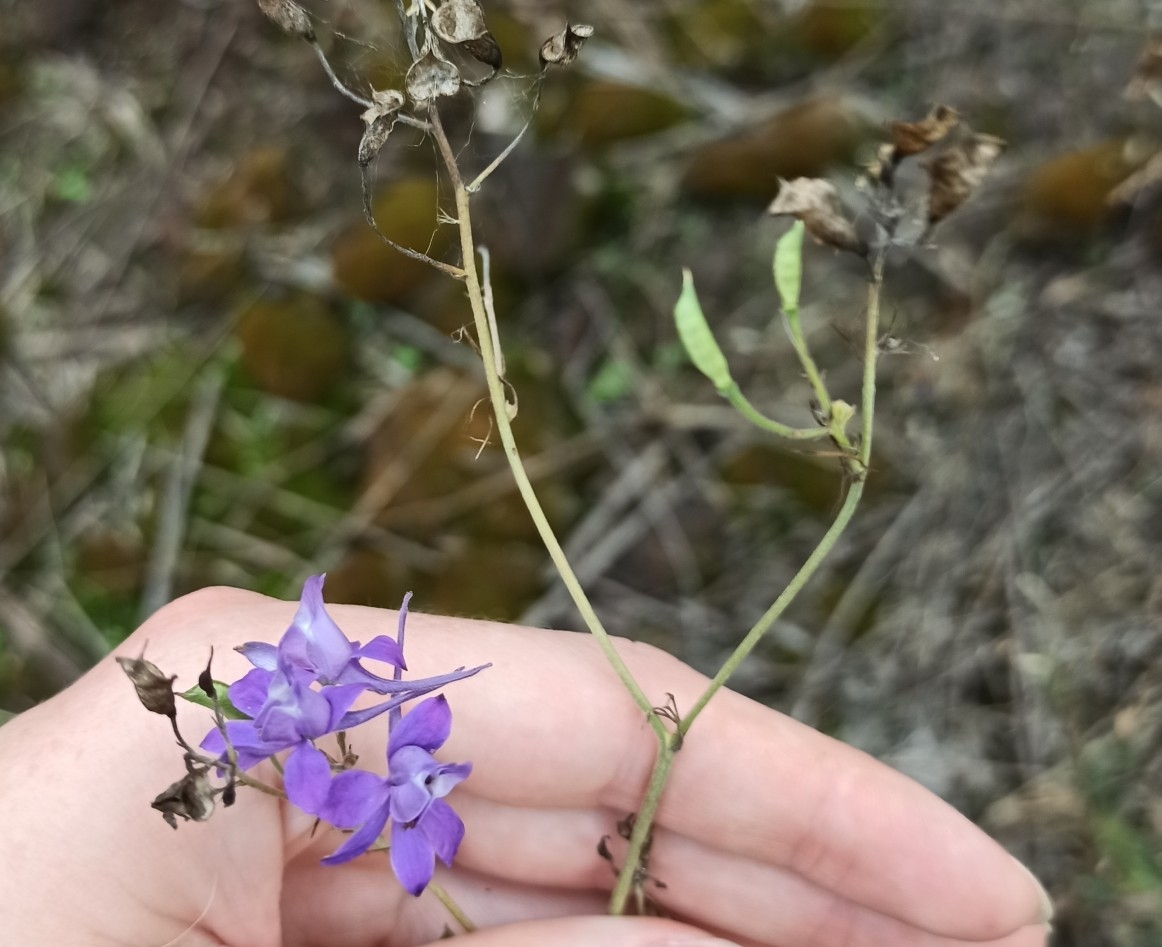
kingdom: Plantae
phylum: Tracheophyta
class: Magnoliopsida
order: Ranunculales
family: Ranunculaceae
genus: Delphinium
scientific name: Delphinium consolida
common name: Branching larkspur
